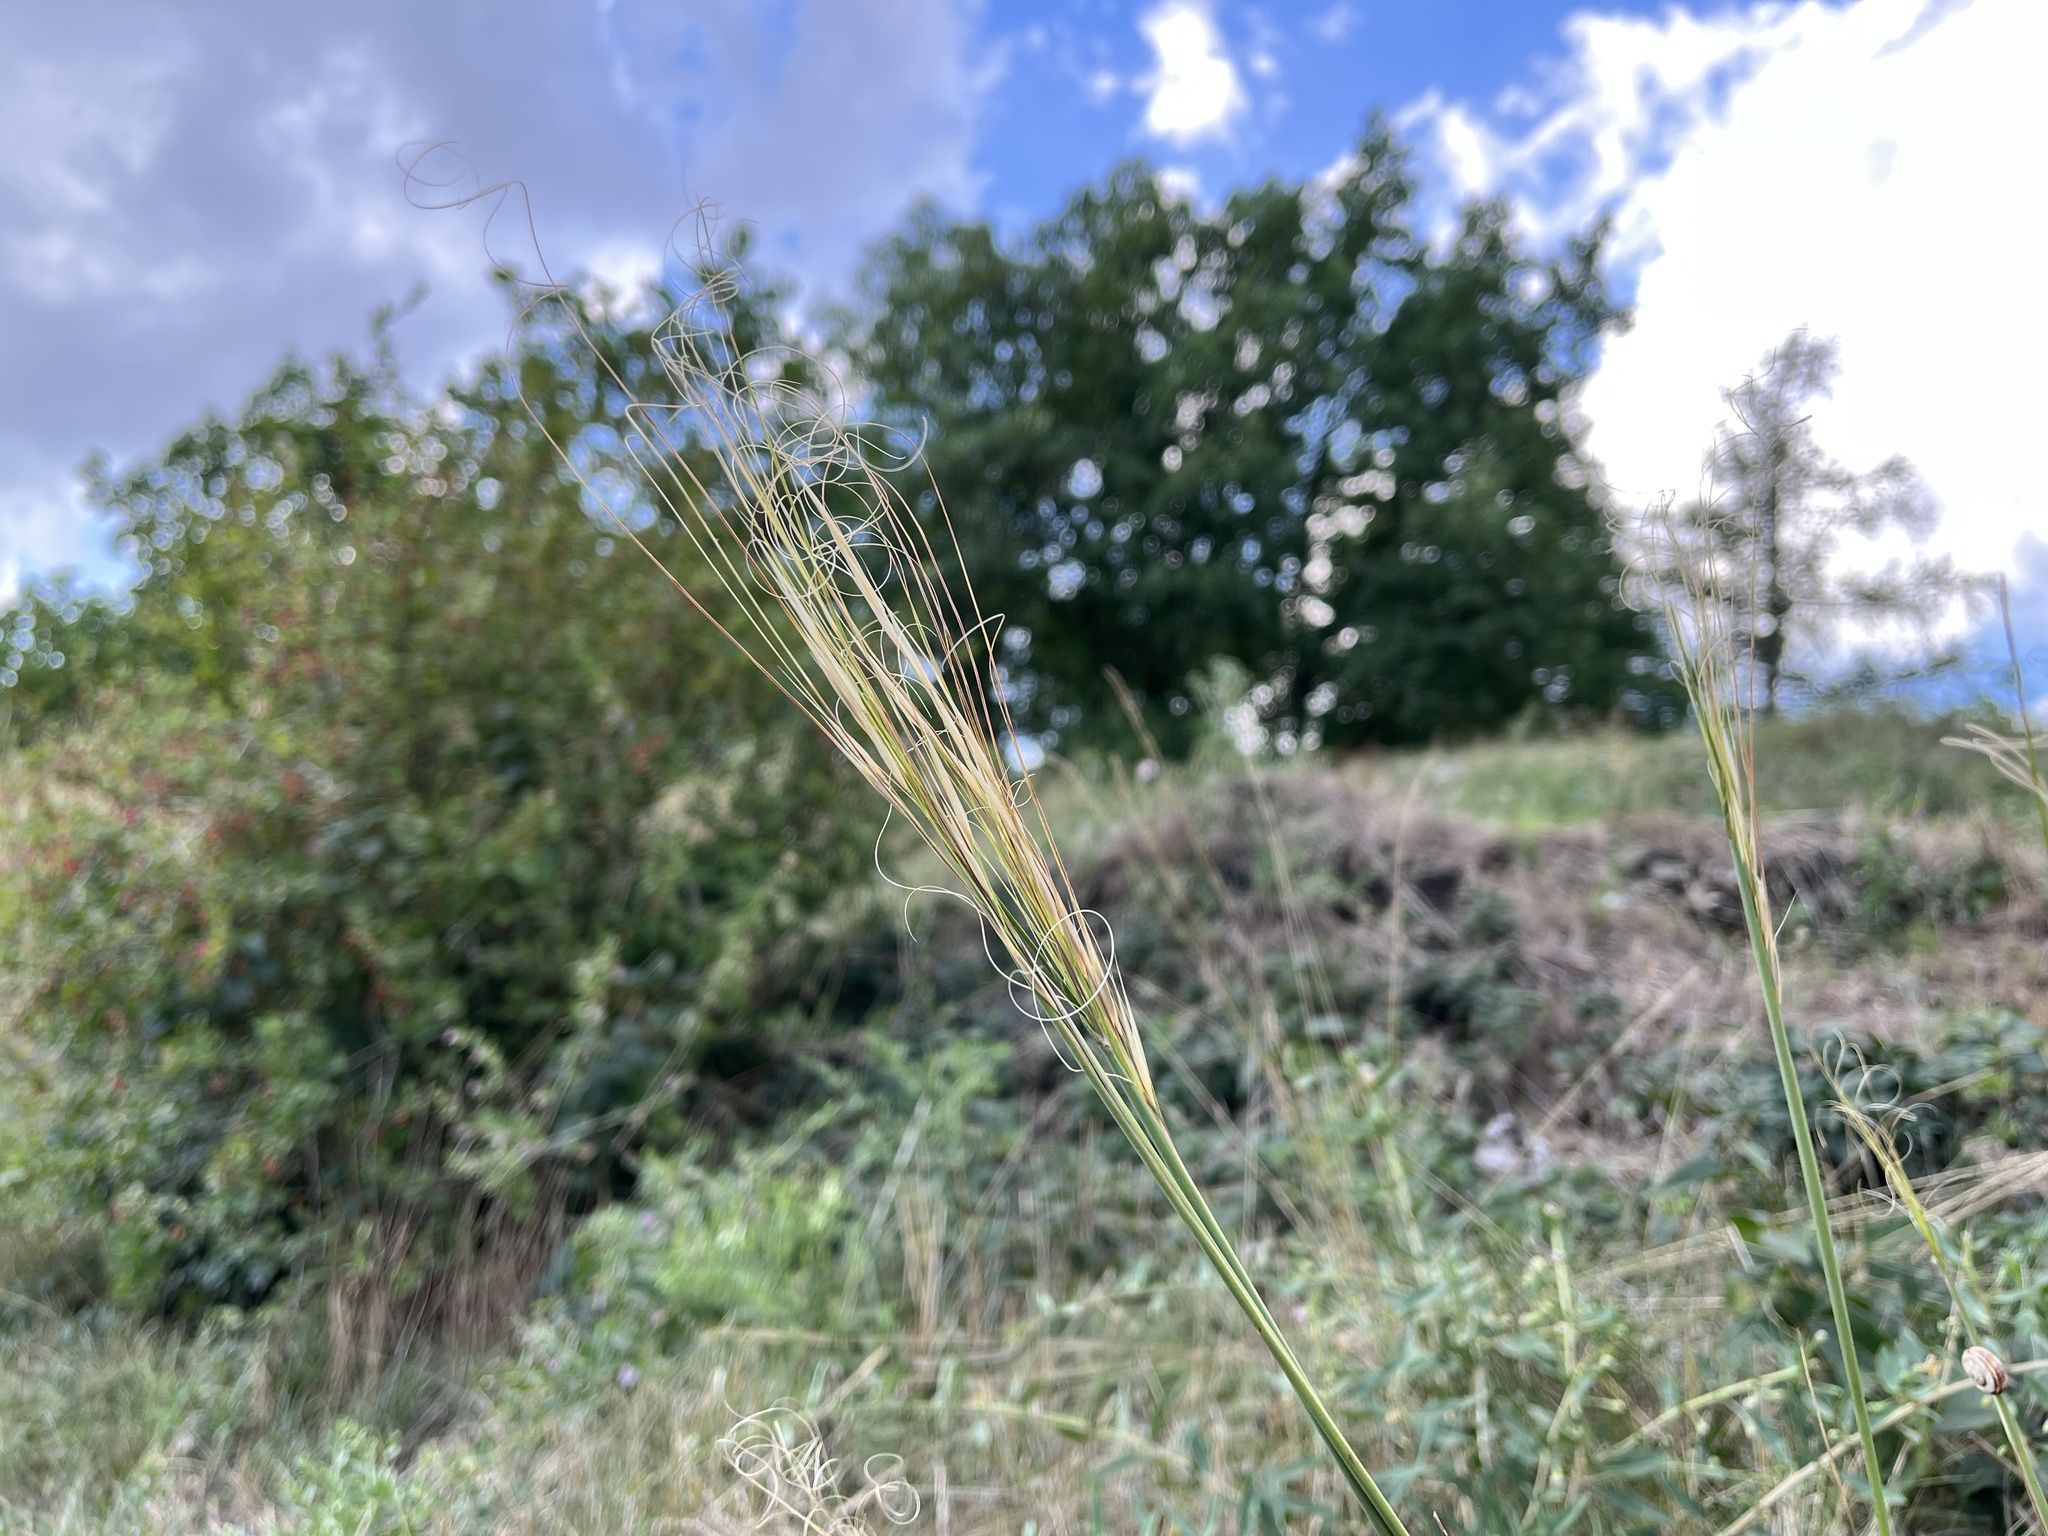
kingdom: Plantae
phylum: Tracheophyta
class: Liliopsida
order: Poales
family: Poaceae
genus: Stipa
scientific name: Stipa capillata
